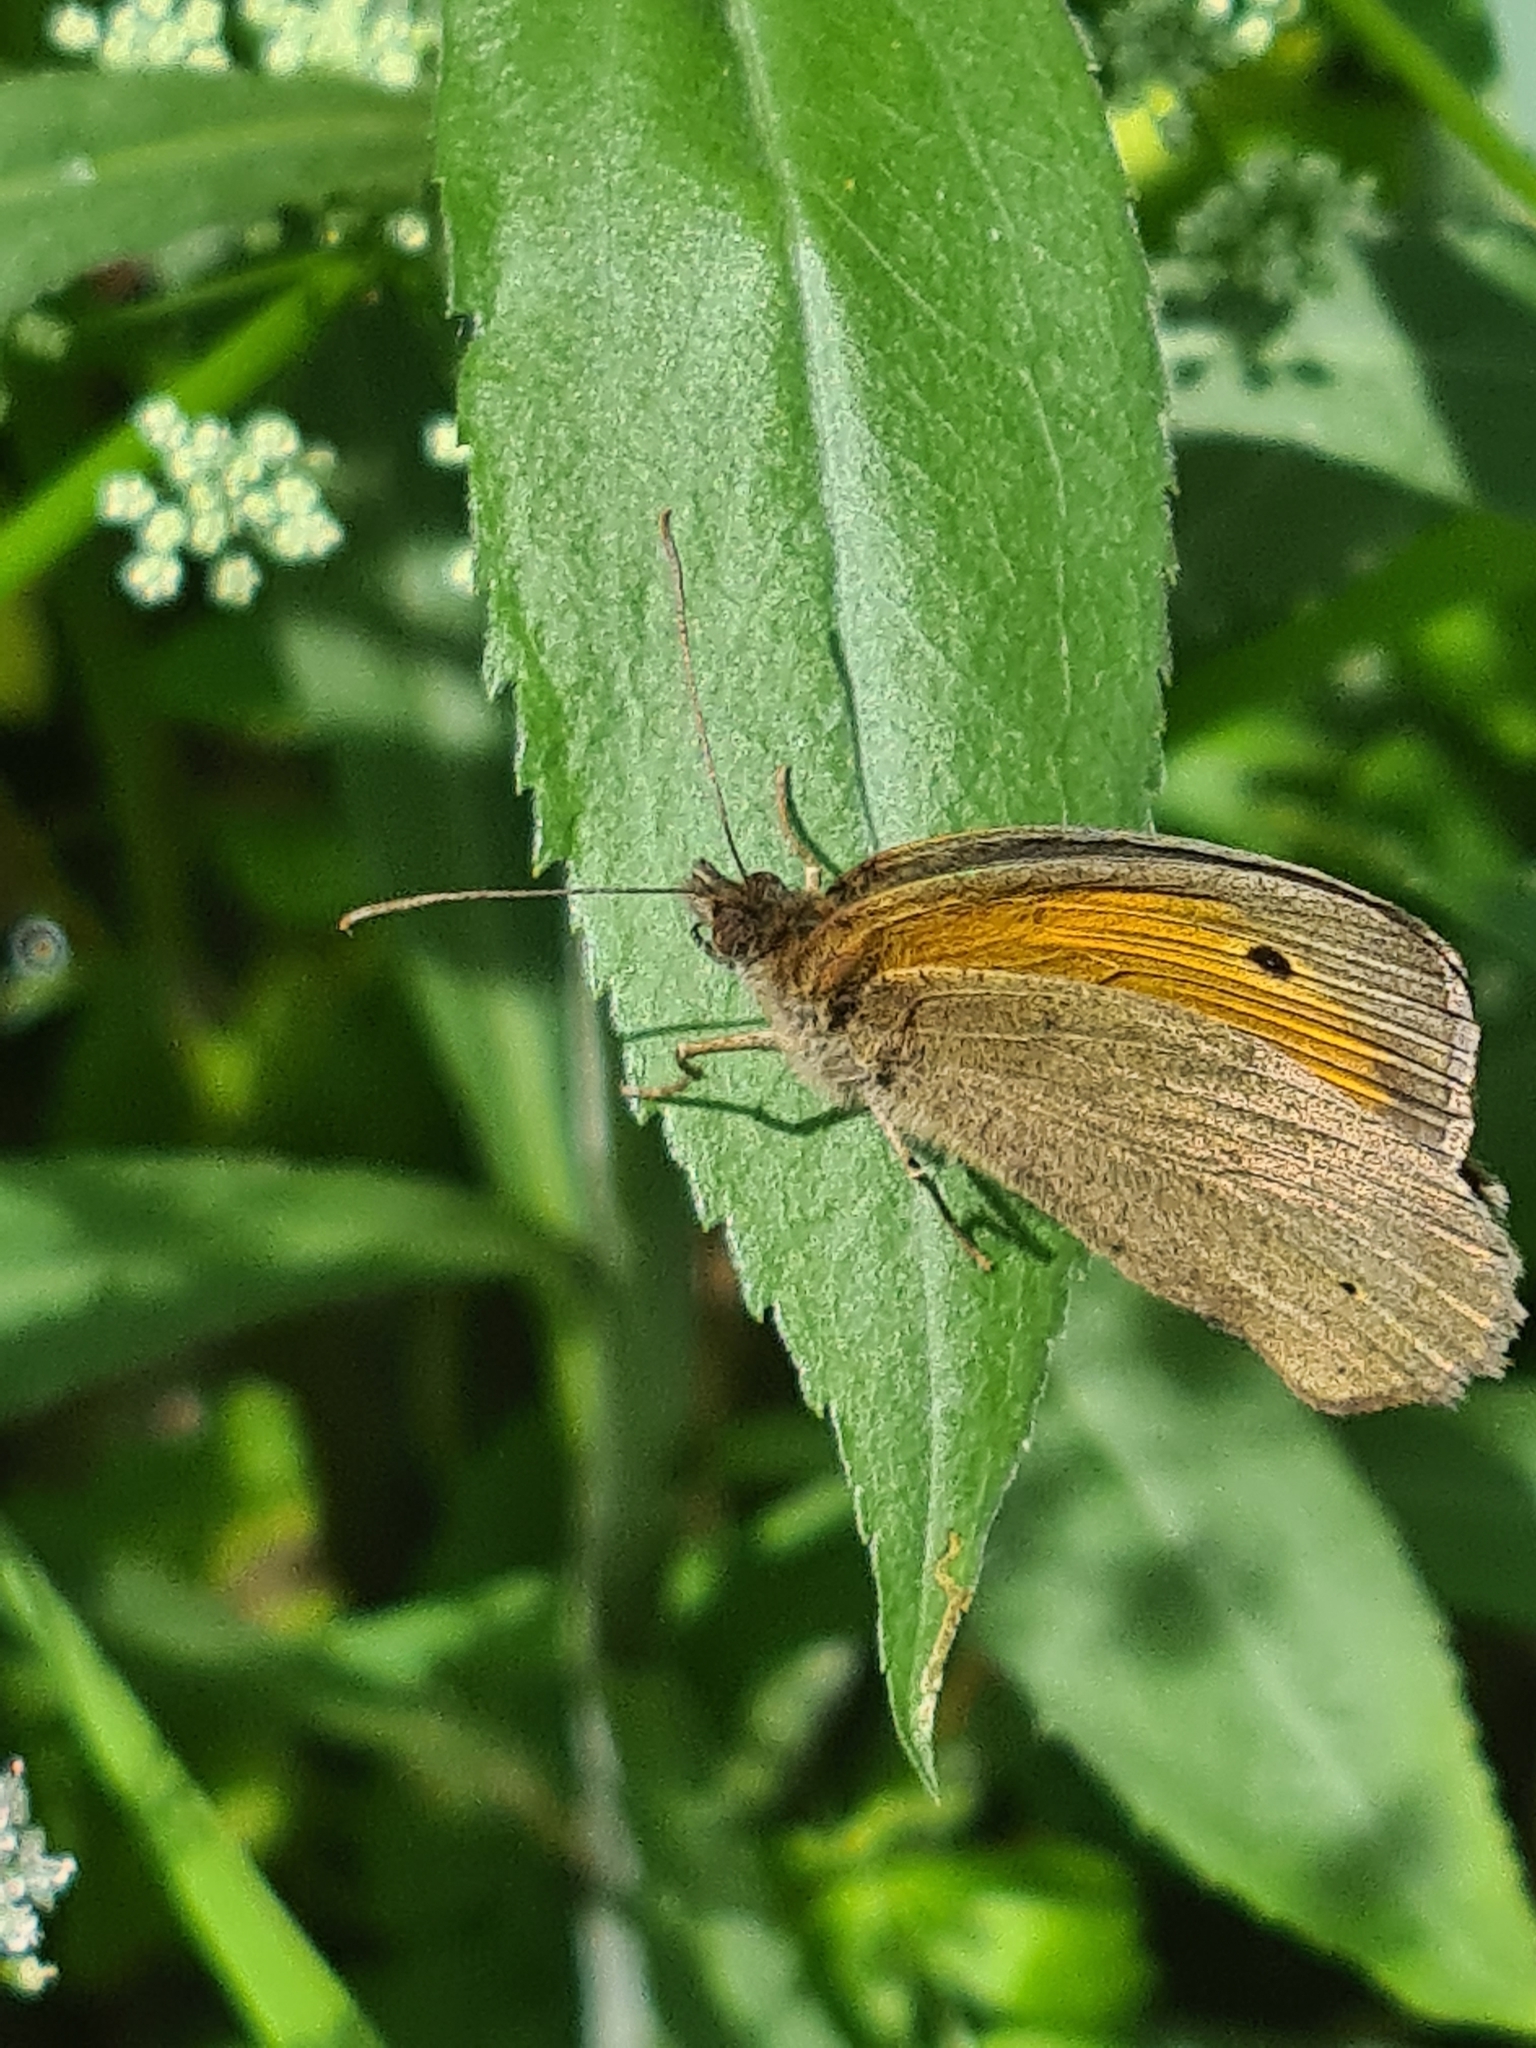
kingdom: Animalia
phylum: Arthropoda
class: Insecta
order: Lepidoptera
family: Nymphalidae
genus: Maniola
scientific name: Maniola jurtina
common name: Meadow brown
